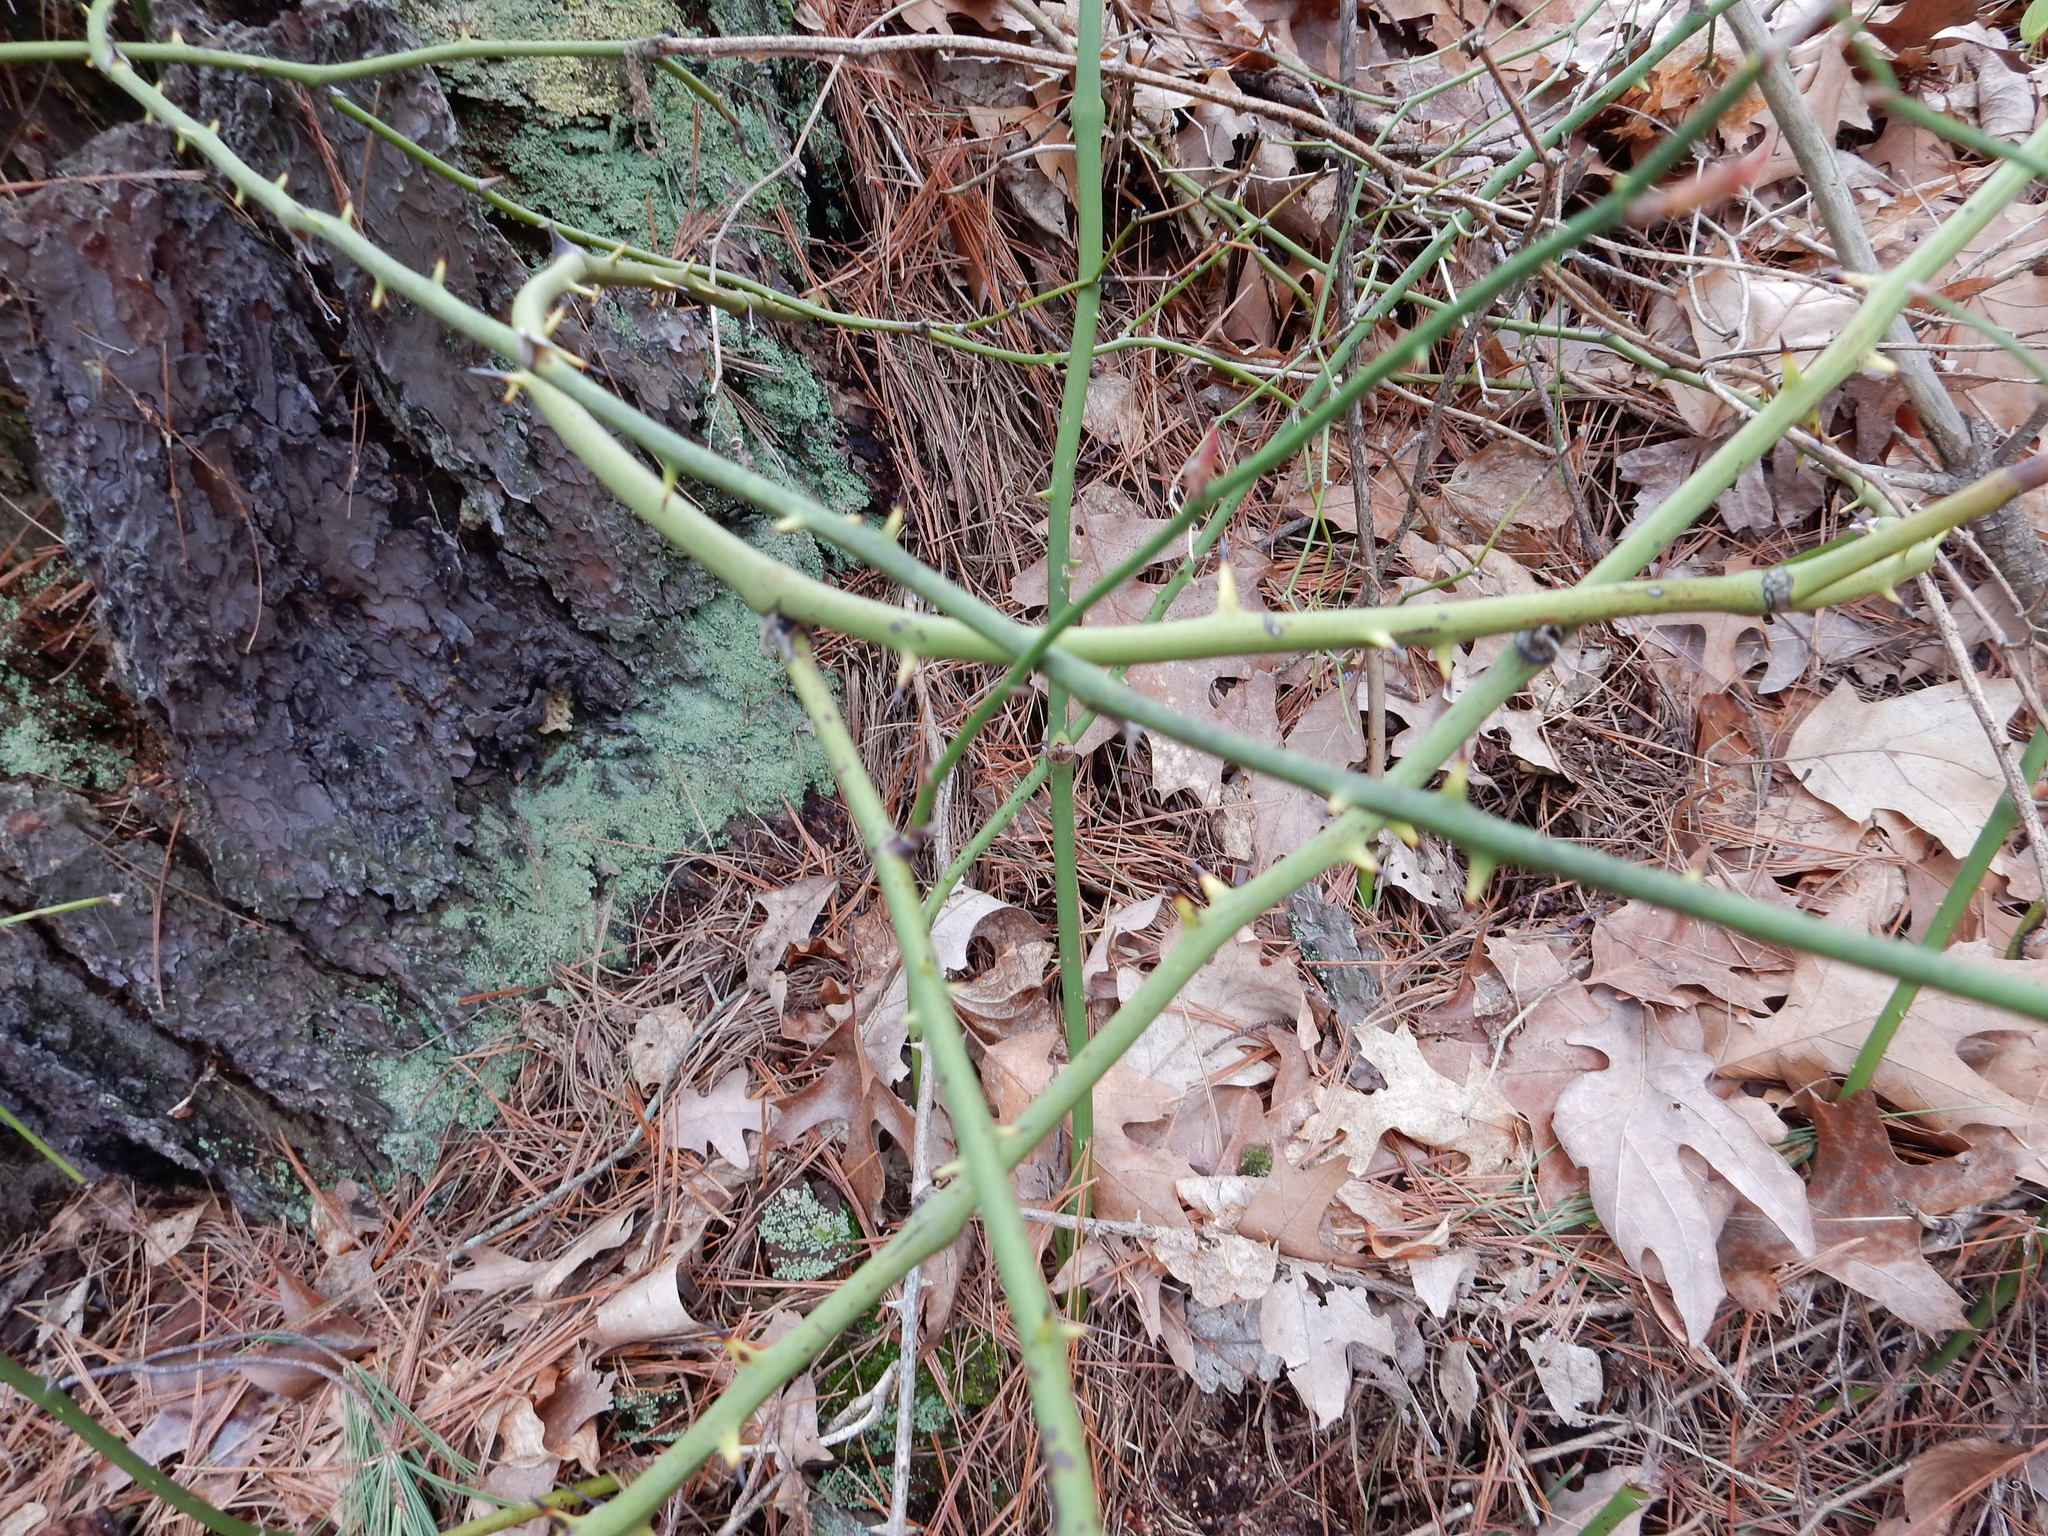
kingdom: Plantae
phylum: Tracheophyta
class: Liliopsida
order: Liliales
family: Smilacaceae
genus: Smilax
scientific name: Smilax rotundifolia
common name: Bullbriar
